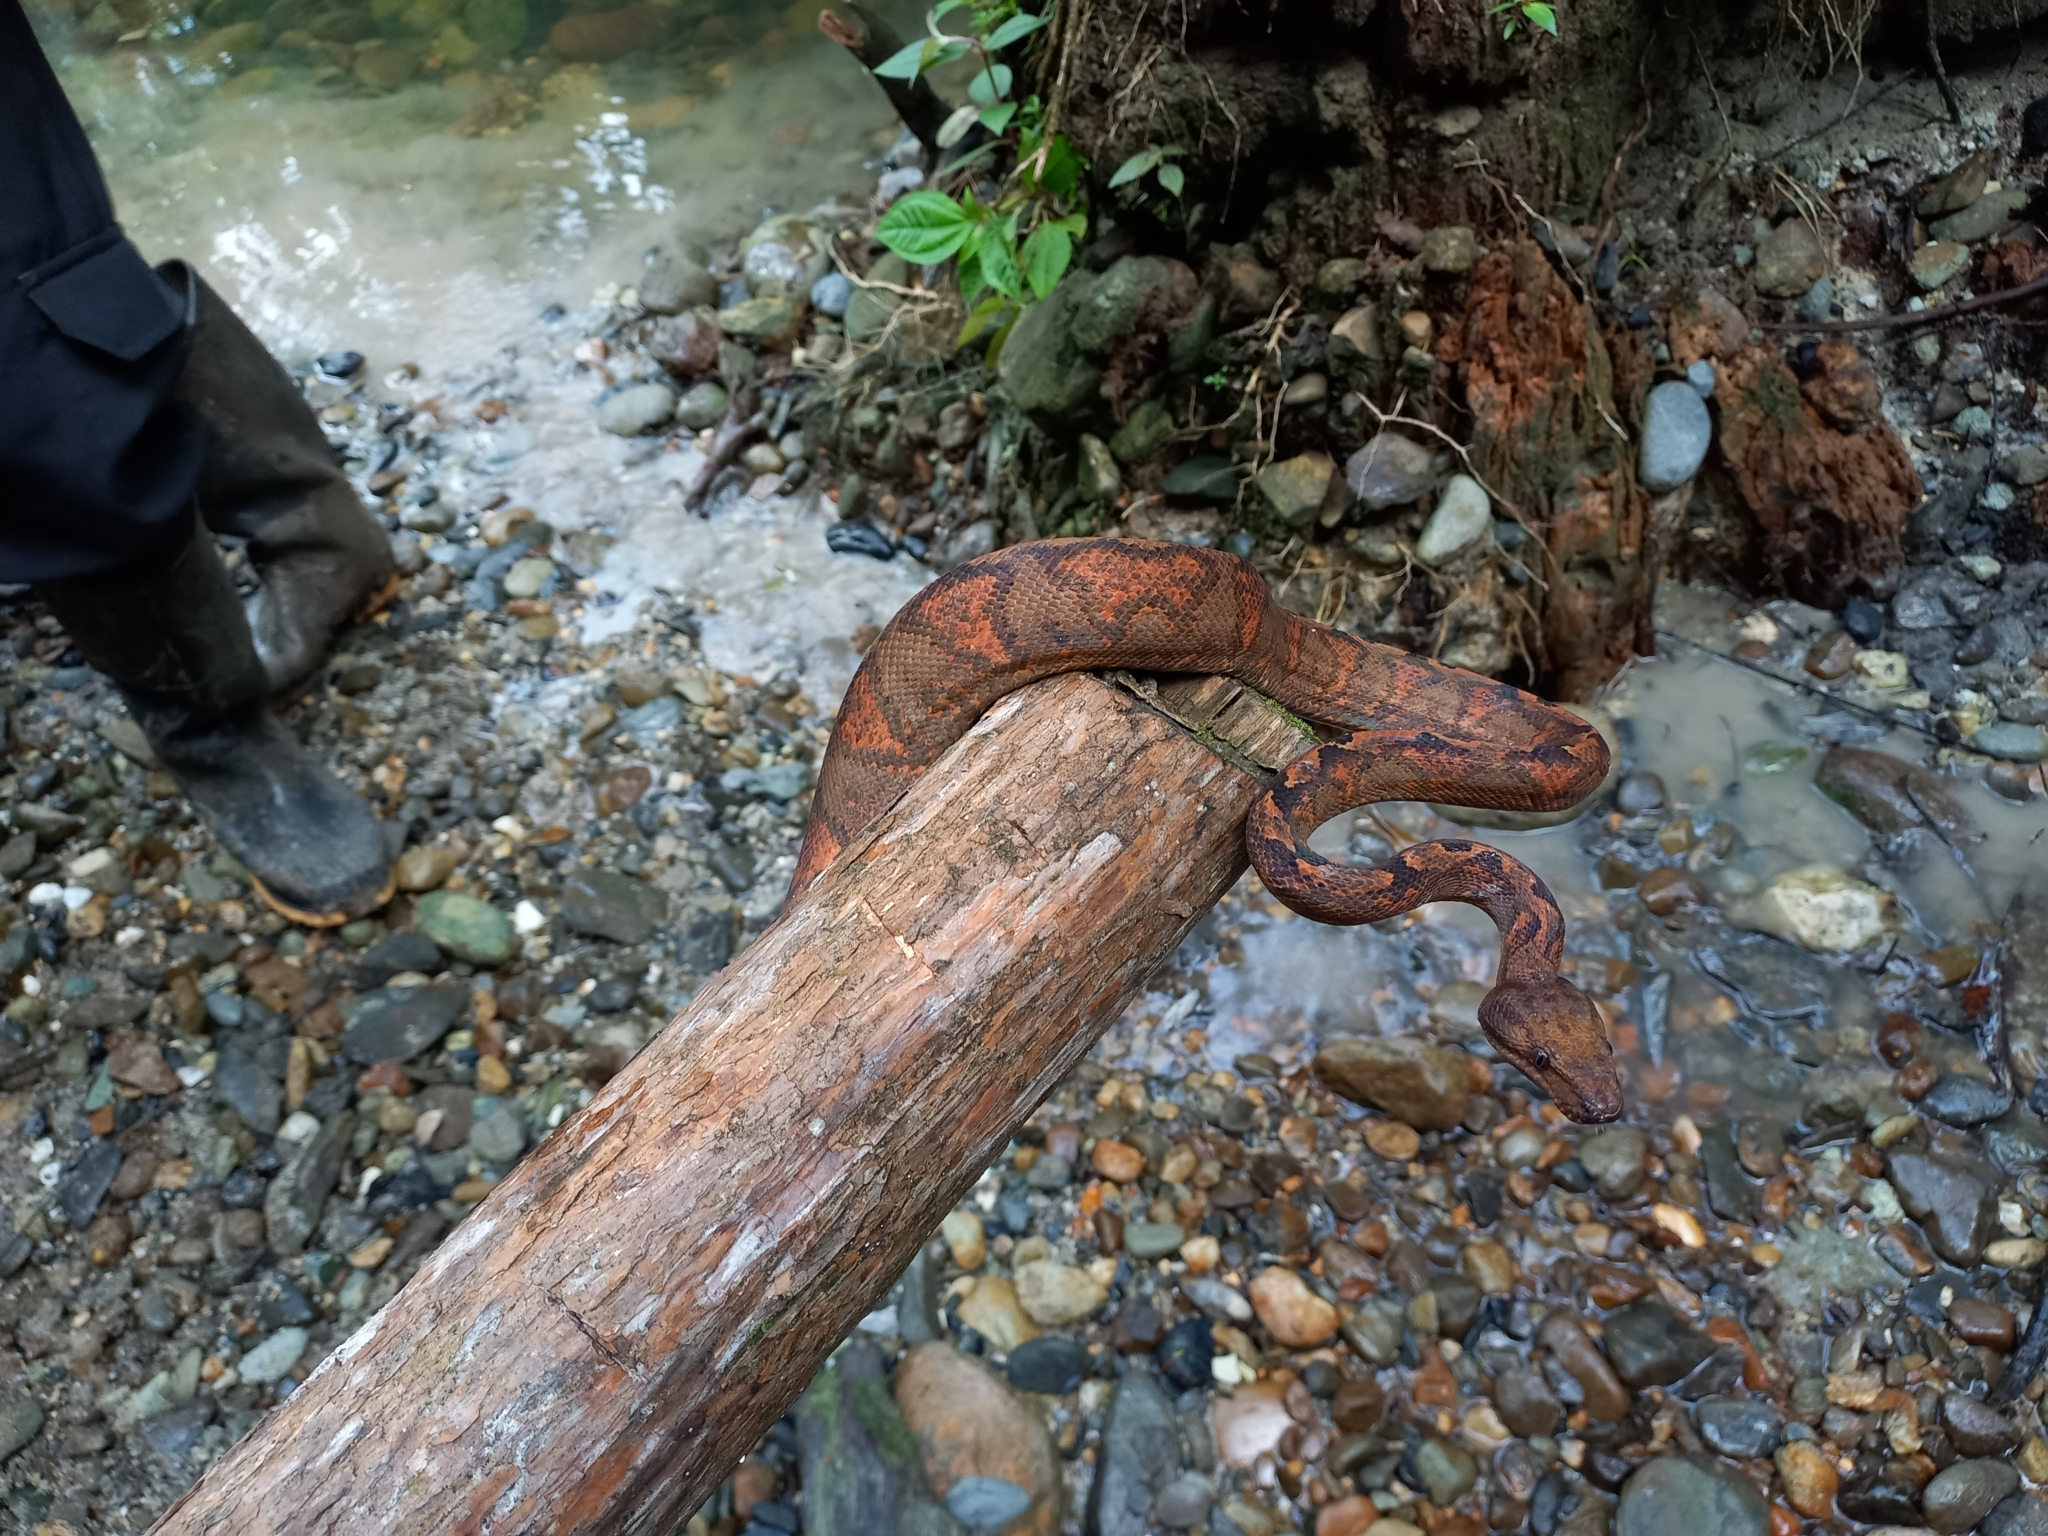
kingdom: Animalia
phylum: Chordata
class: Squamata
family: Boidae
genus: Corallus
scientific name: Corallus annulatus
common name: Ringed tree boa
